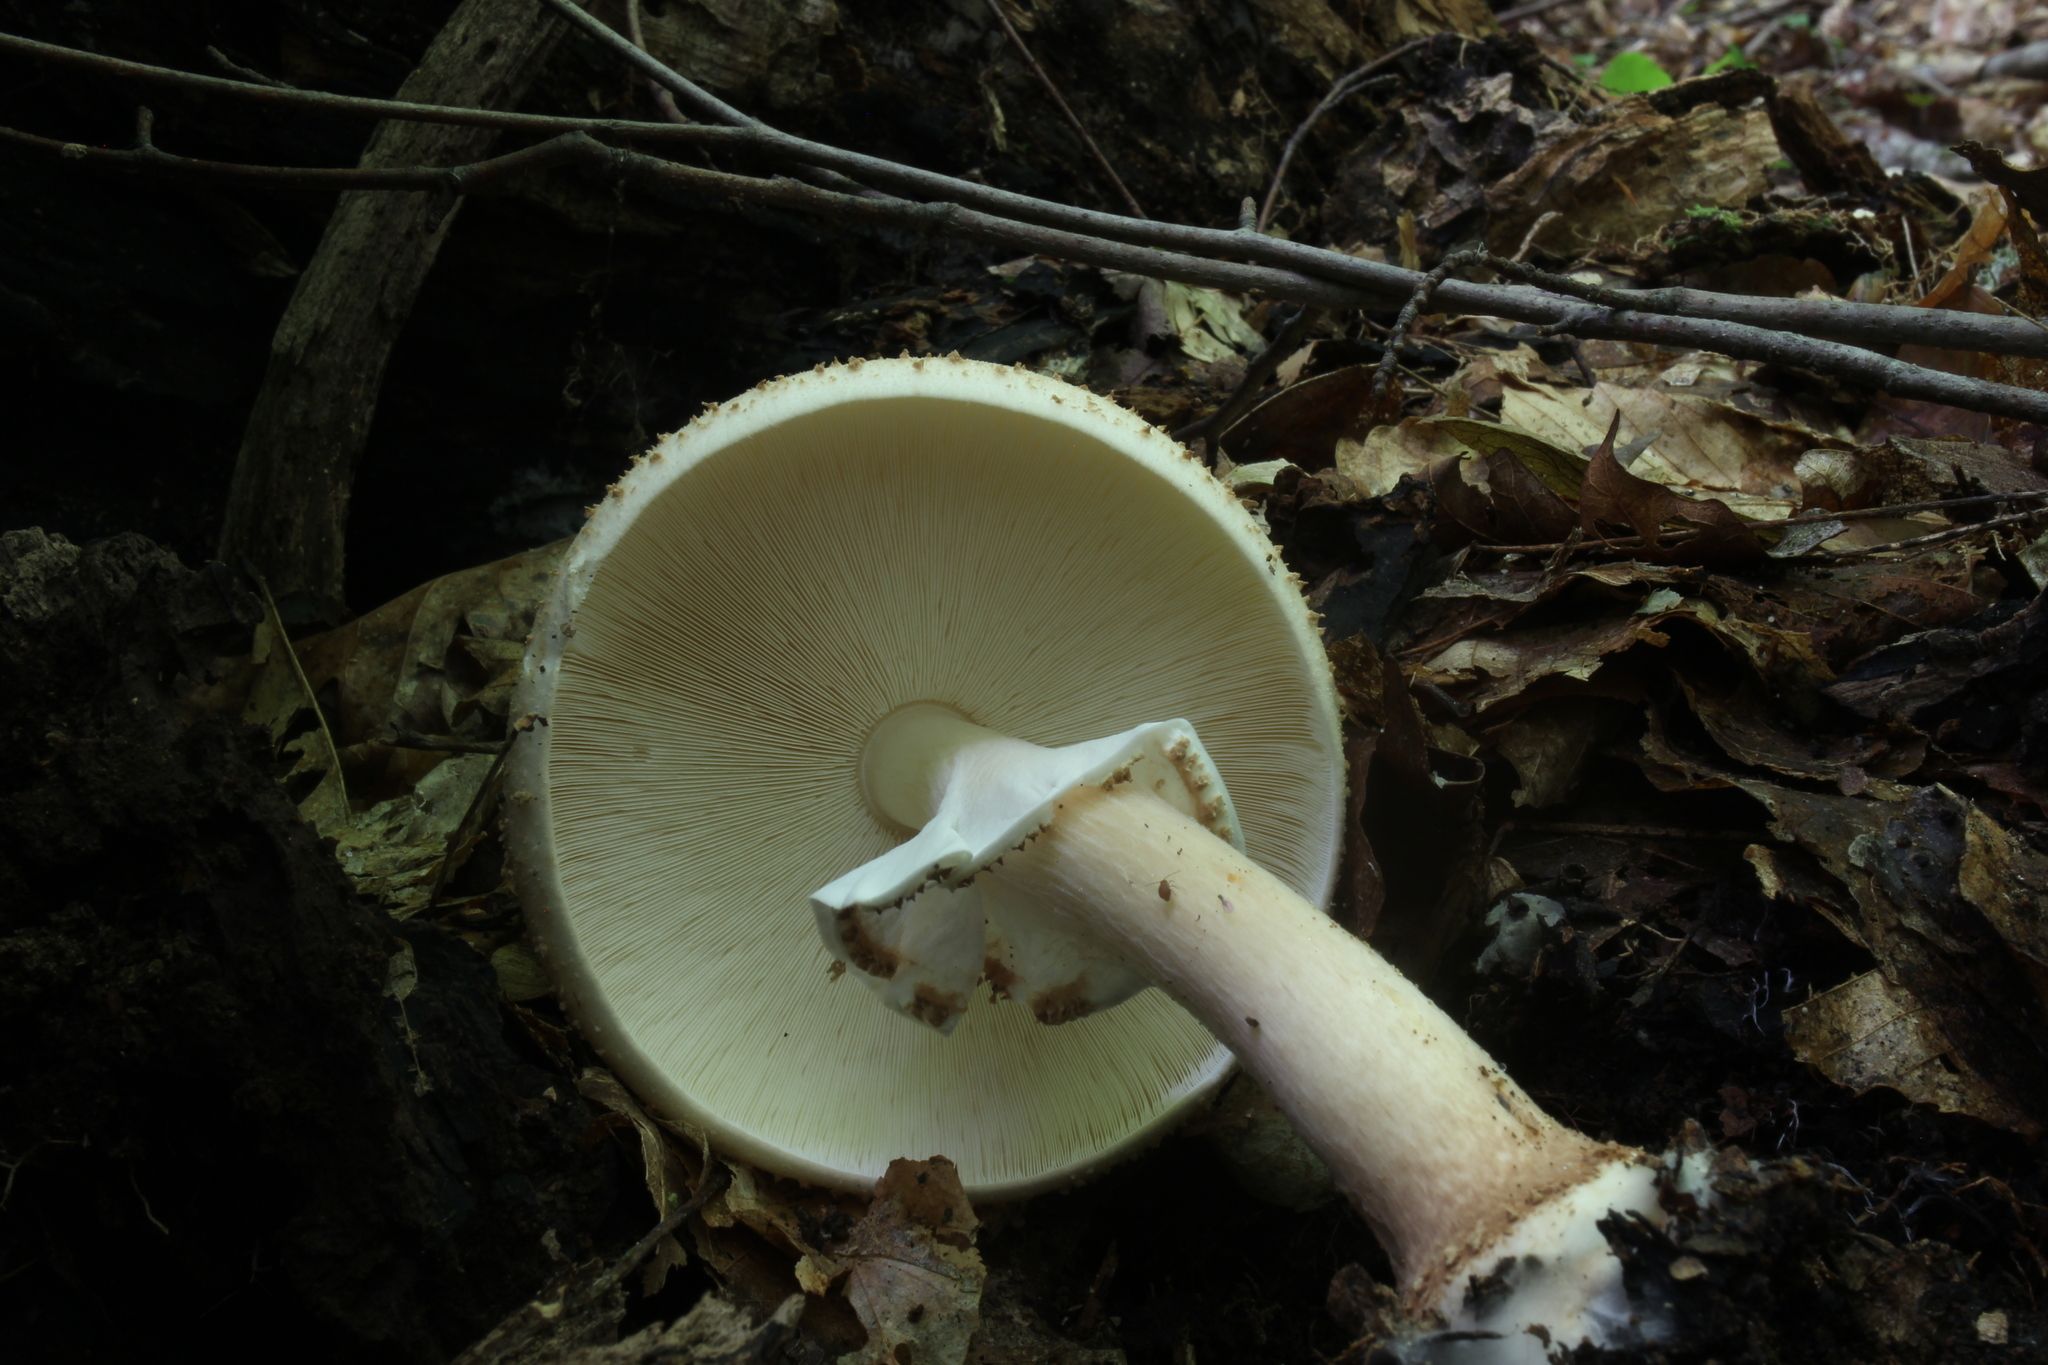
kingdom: Fungi
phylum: Basidiomycota
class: Agaricomycetes
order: Agaricales
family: Agaricaceae
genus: Echinoderma
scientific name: Echinoderma asperum
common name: Freckled dapperling
